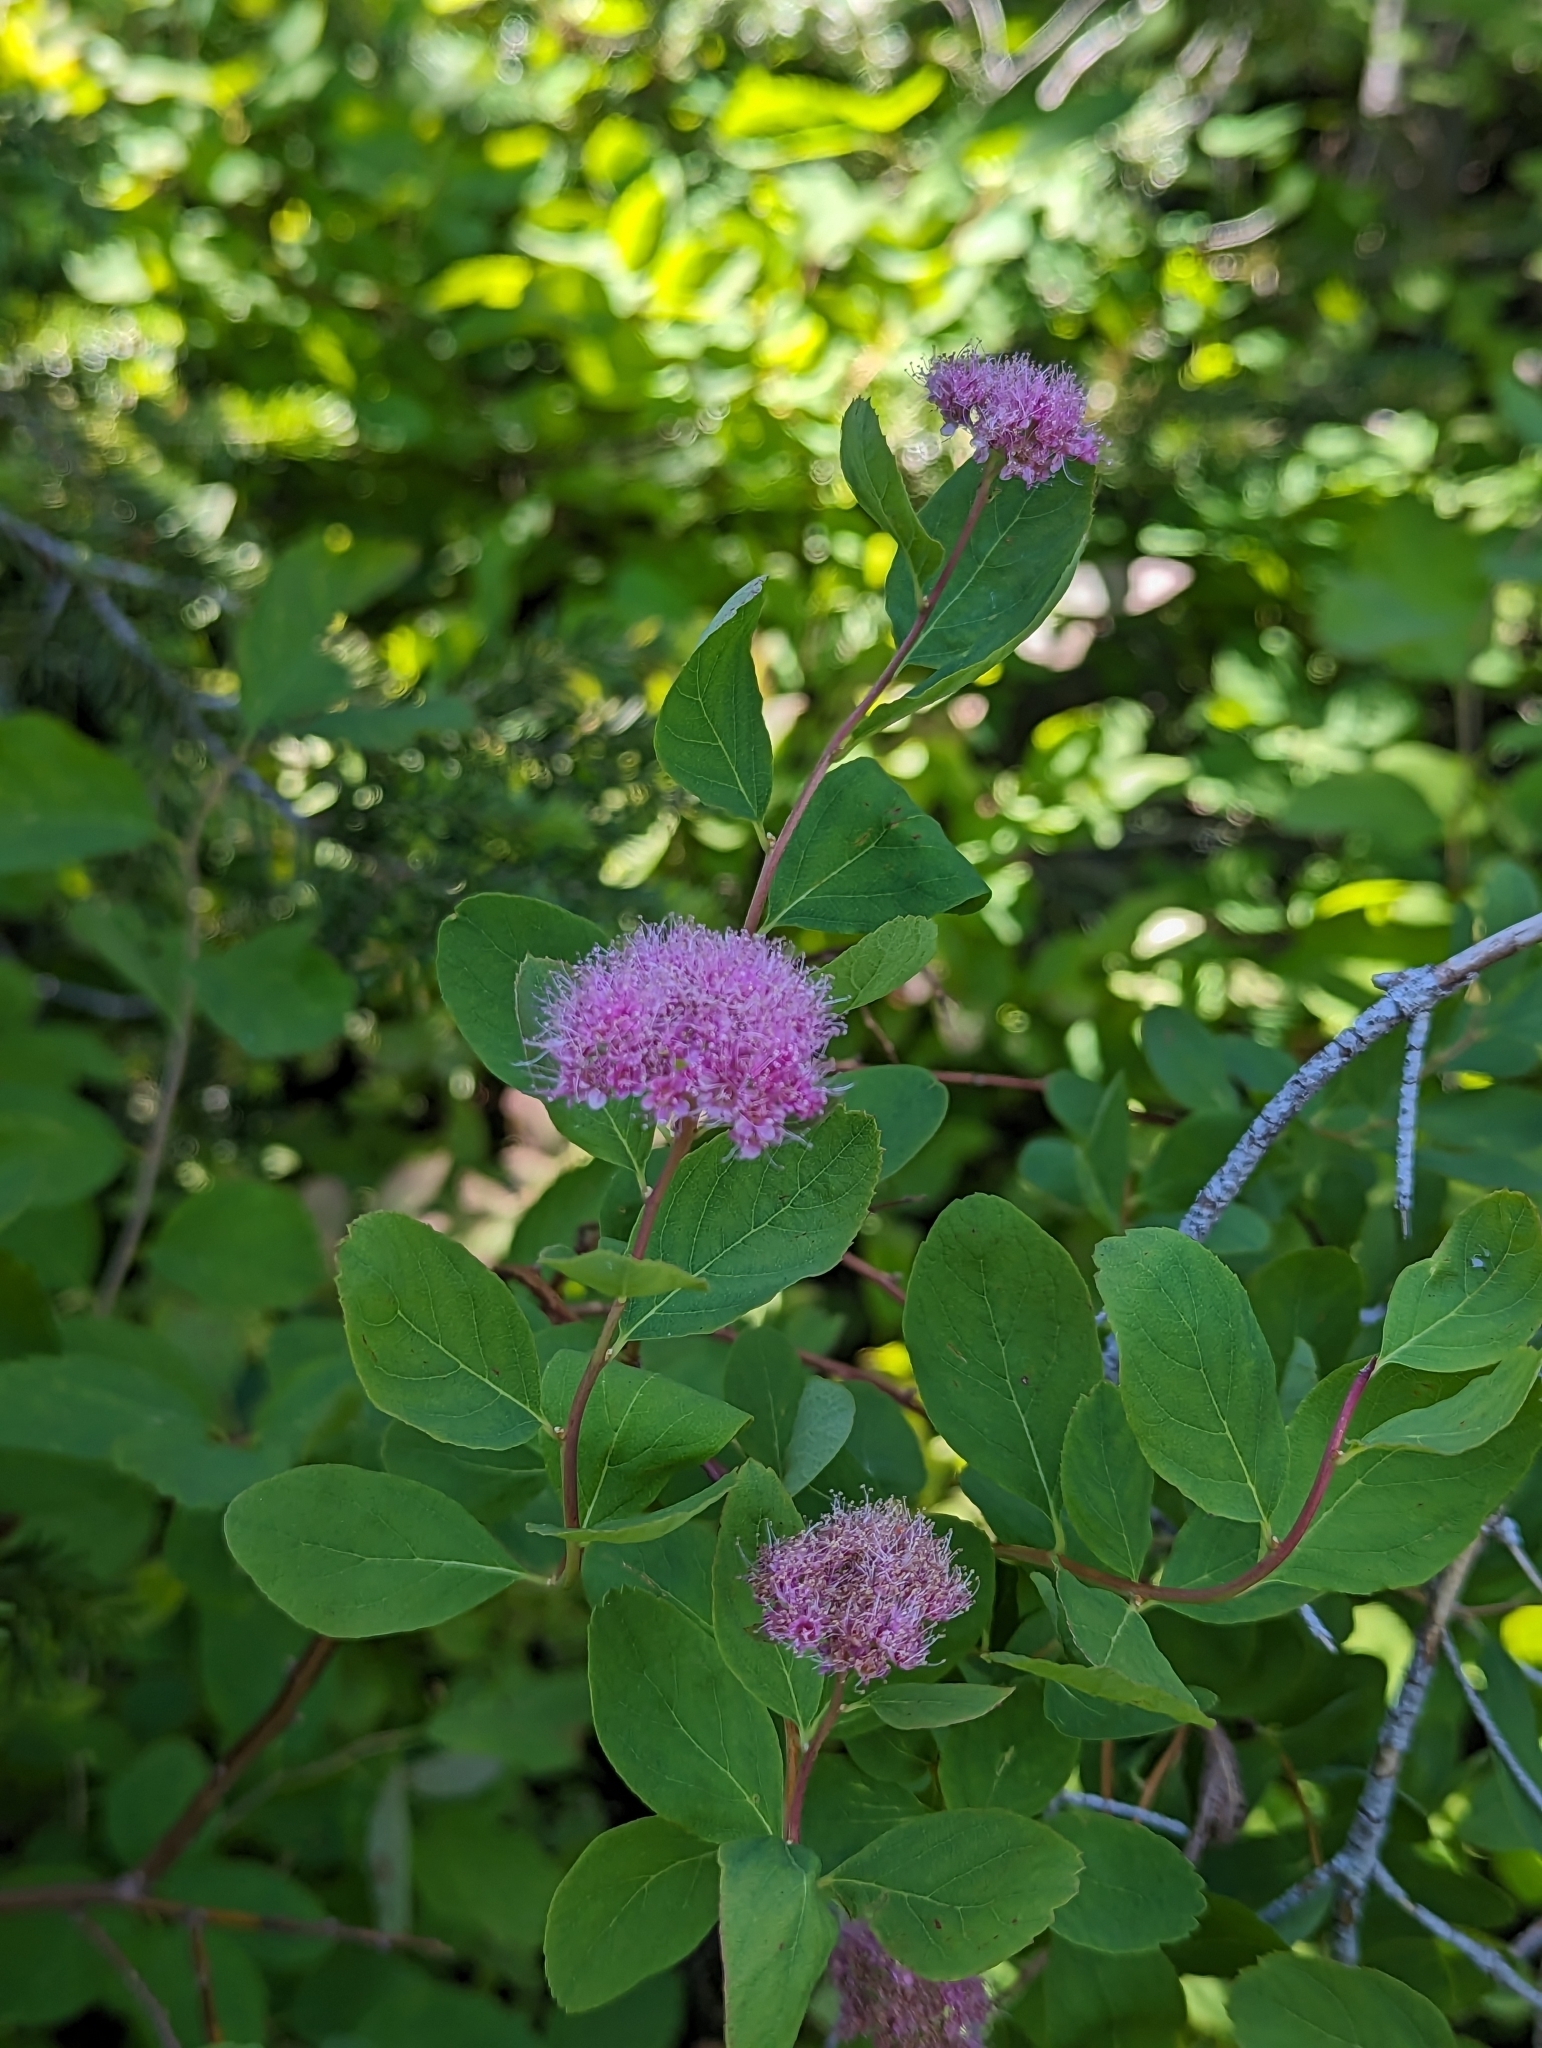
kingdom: Plantae
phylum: Tracheophyta
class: Magnoliopsida
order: Rosales
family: Rosaceae
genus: Spiraea
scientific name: Spiraea splendens
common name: Subalpine meadowsweet
